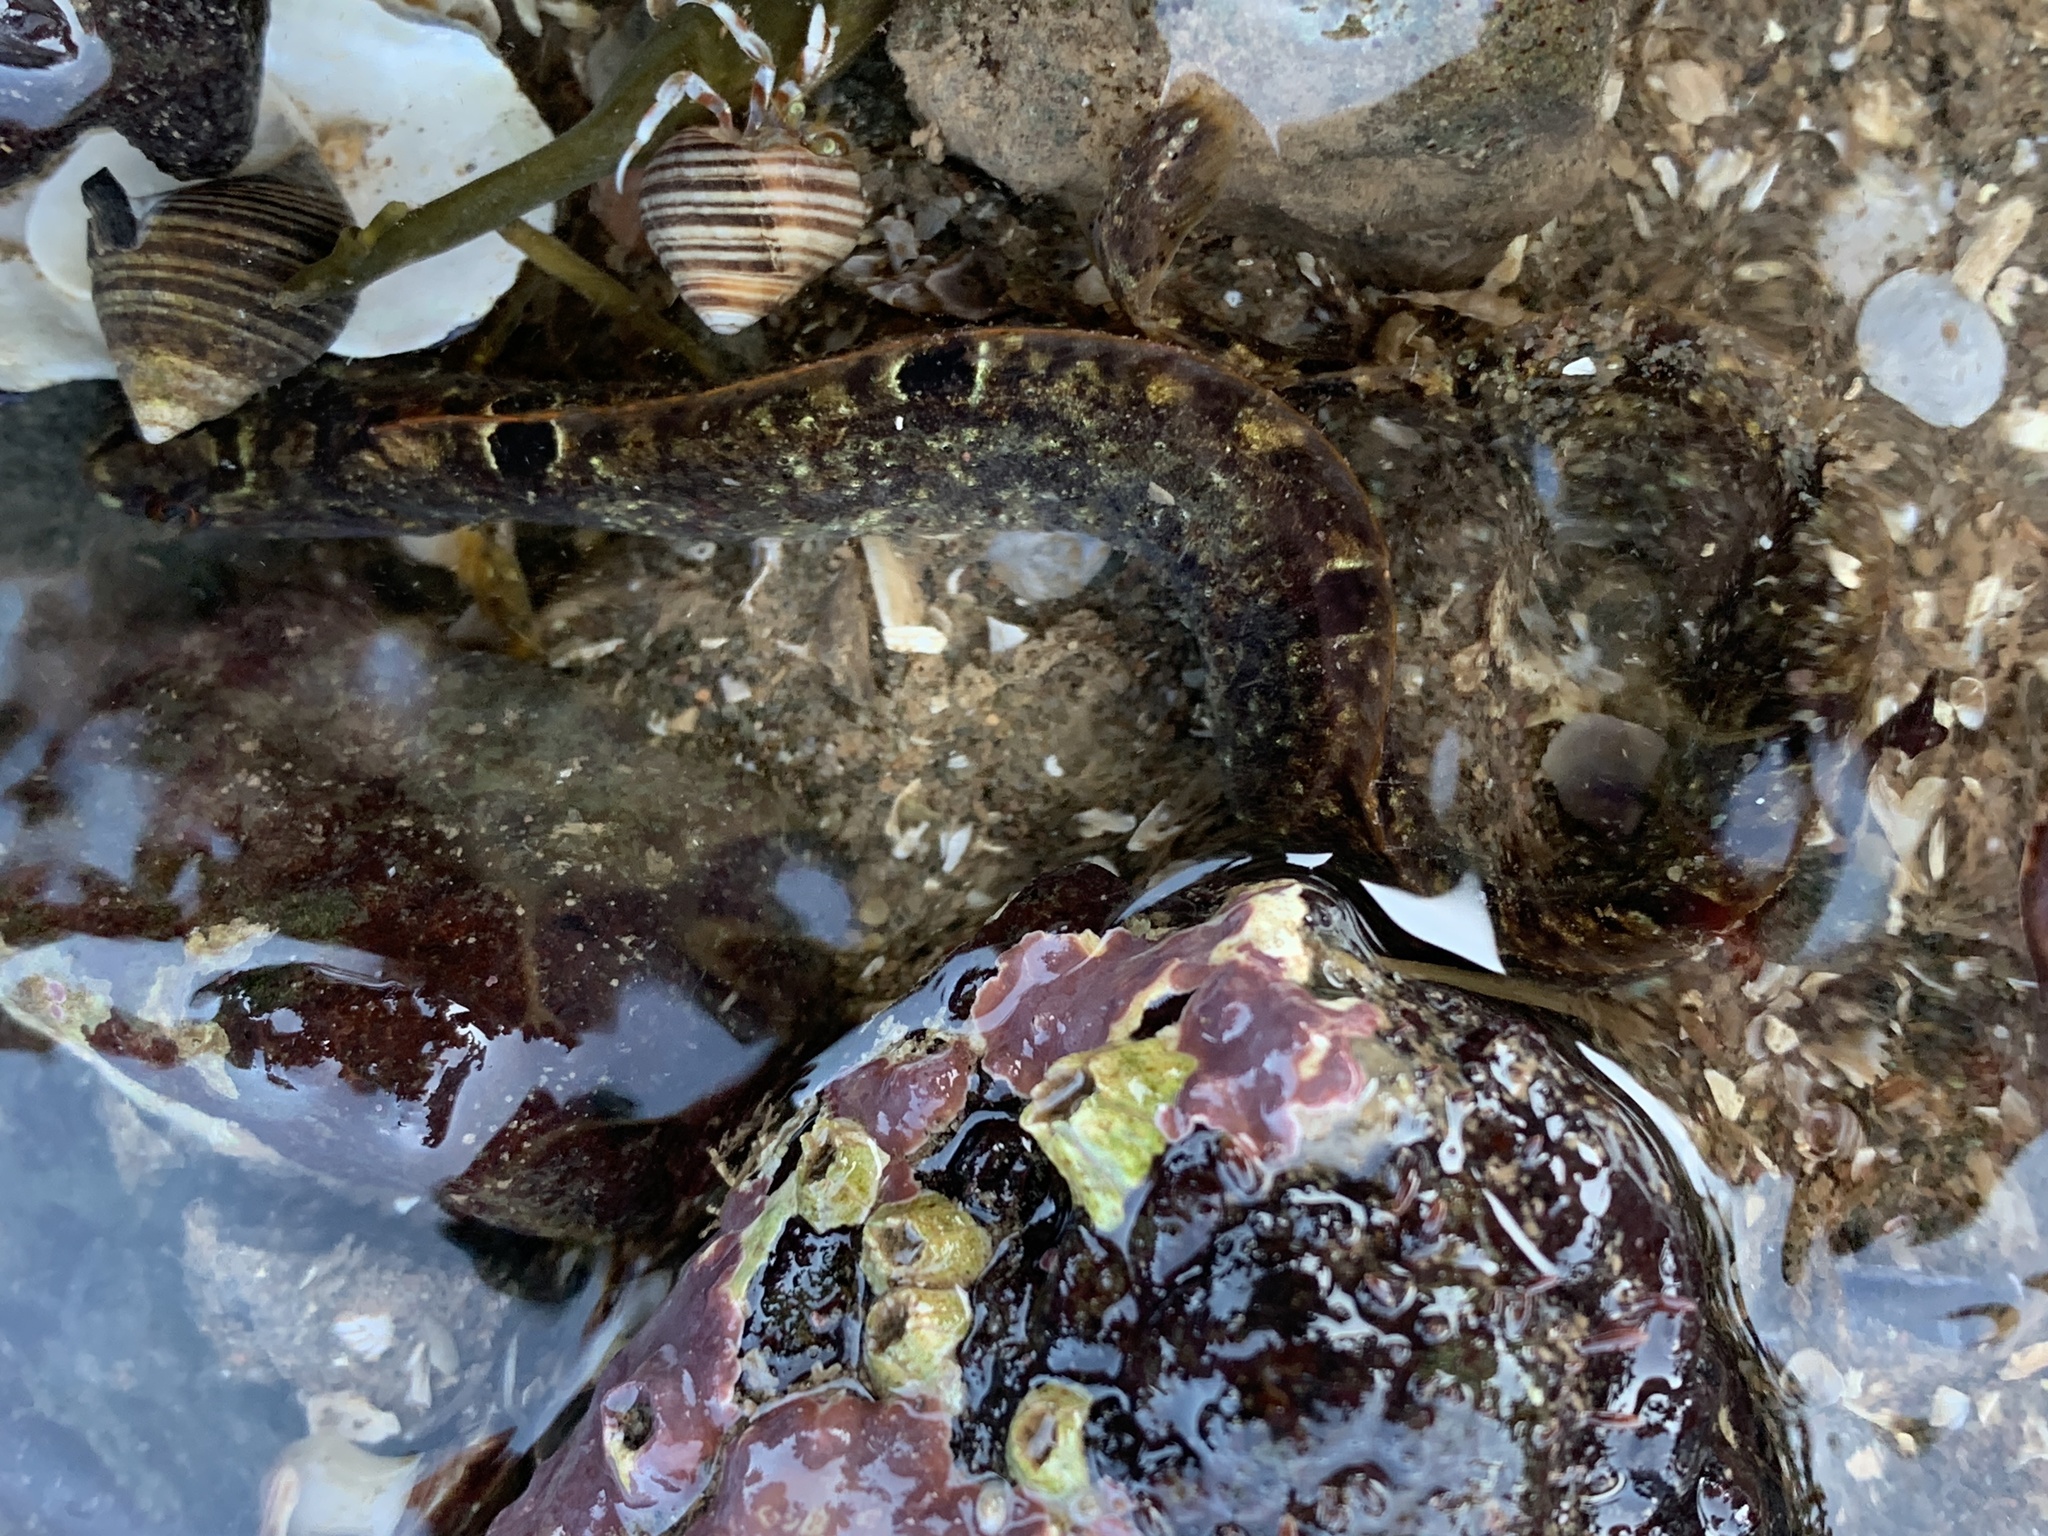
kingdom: Animalia
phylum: Chordata
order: Perciformes
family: Pholidae
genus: Pholis
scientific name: Pholis gunnellus
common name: Butterfish
